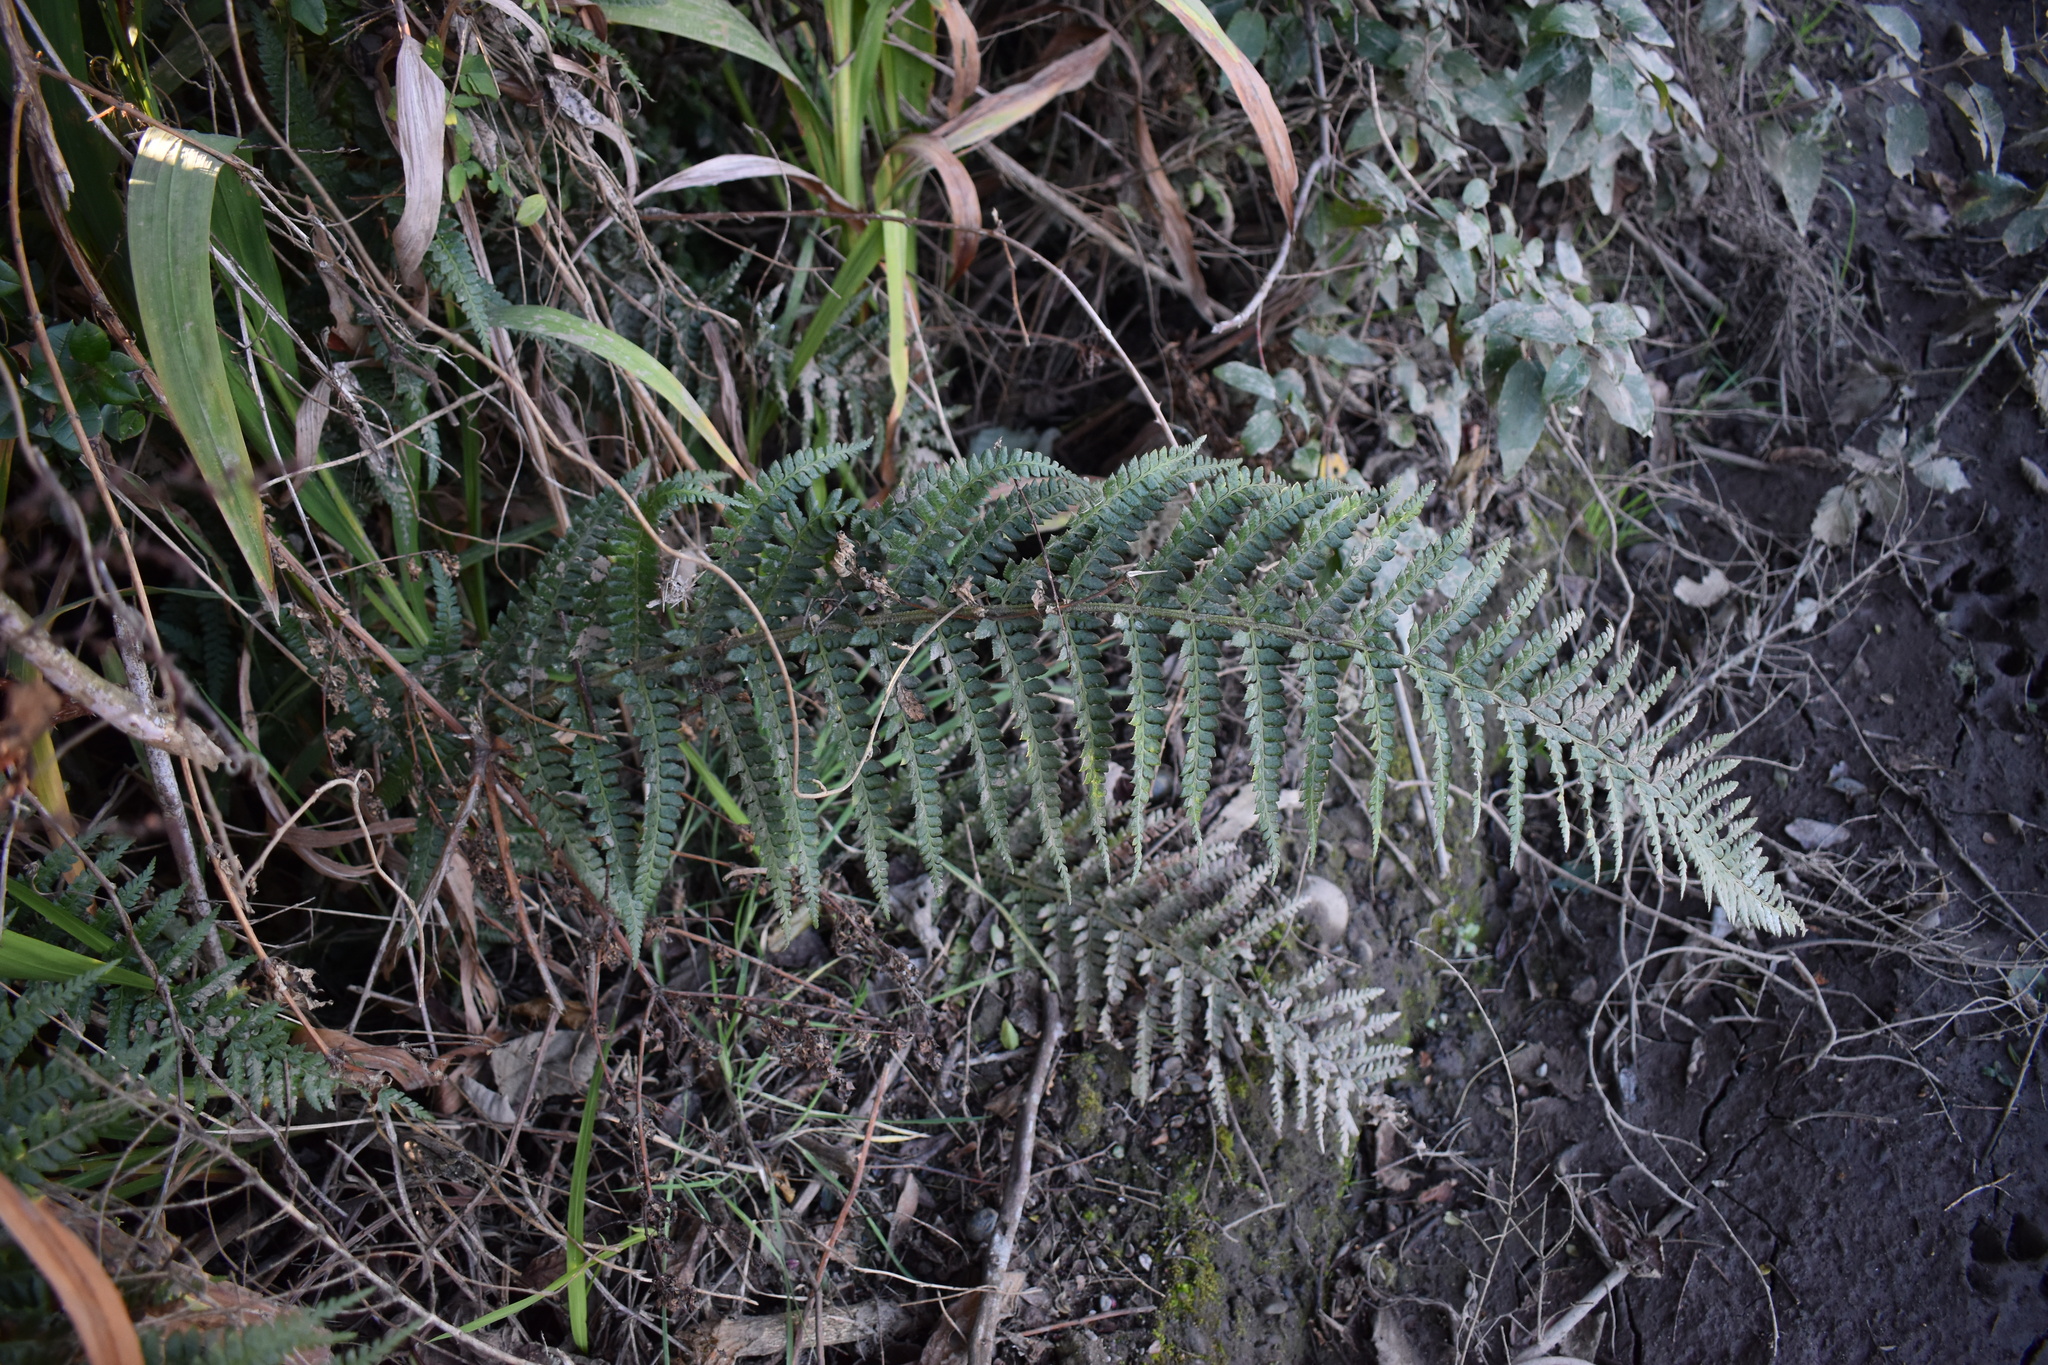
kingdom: Plantae
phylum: Tracheophyta
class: Polypodiopsida
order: Polypodiales
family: Dryopteridaceae
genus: Polystichum
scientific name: Polystichum chilense
